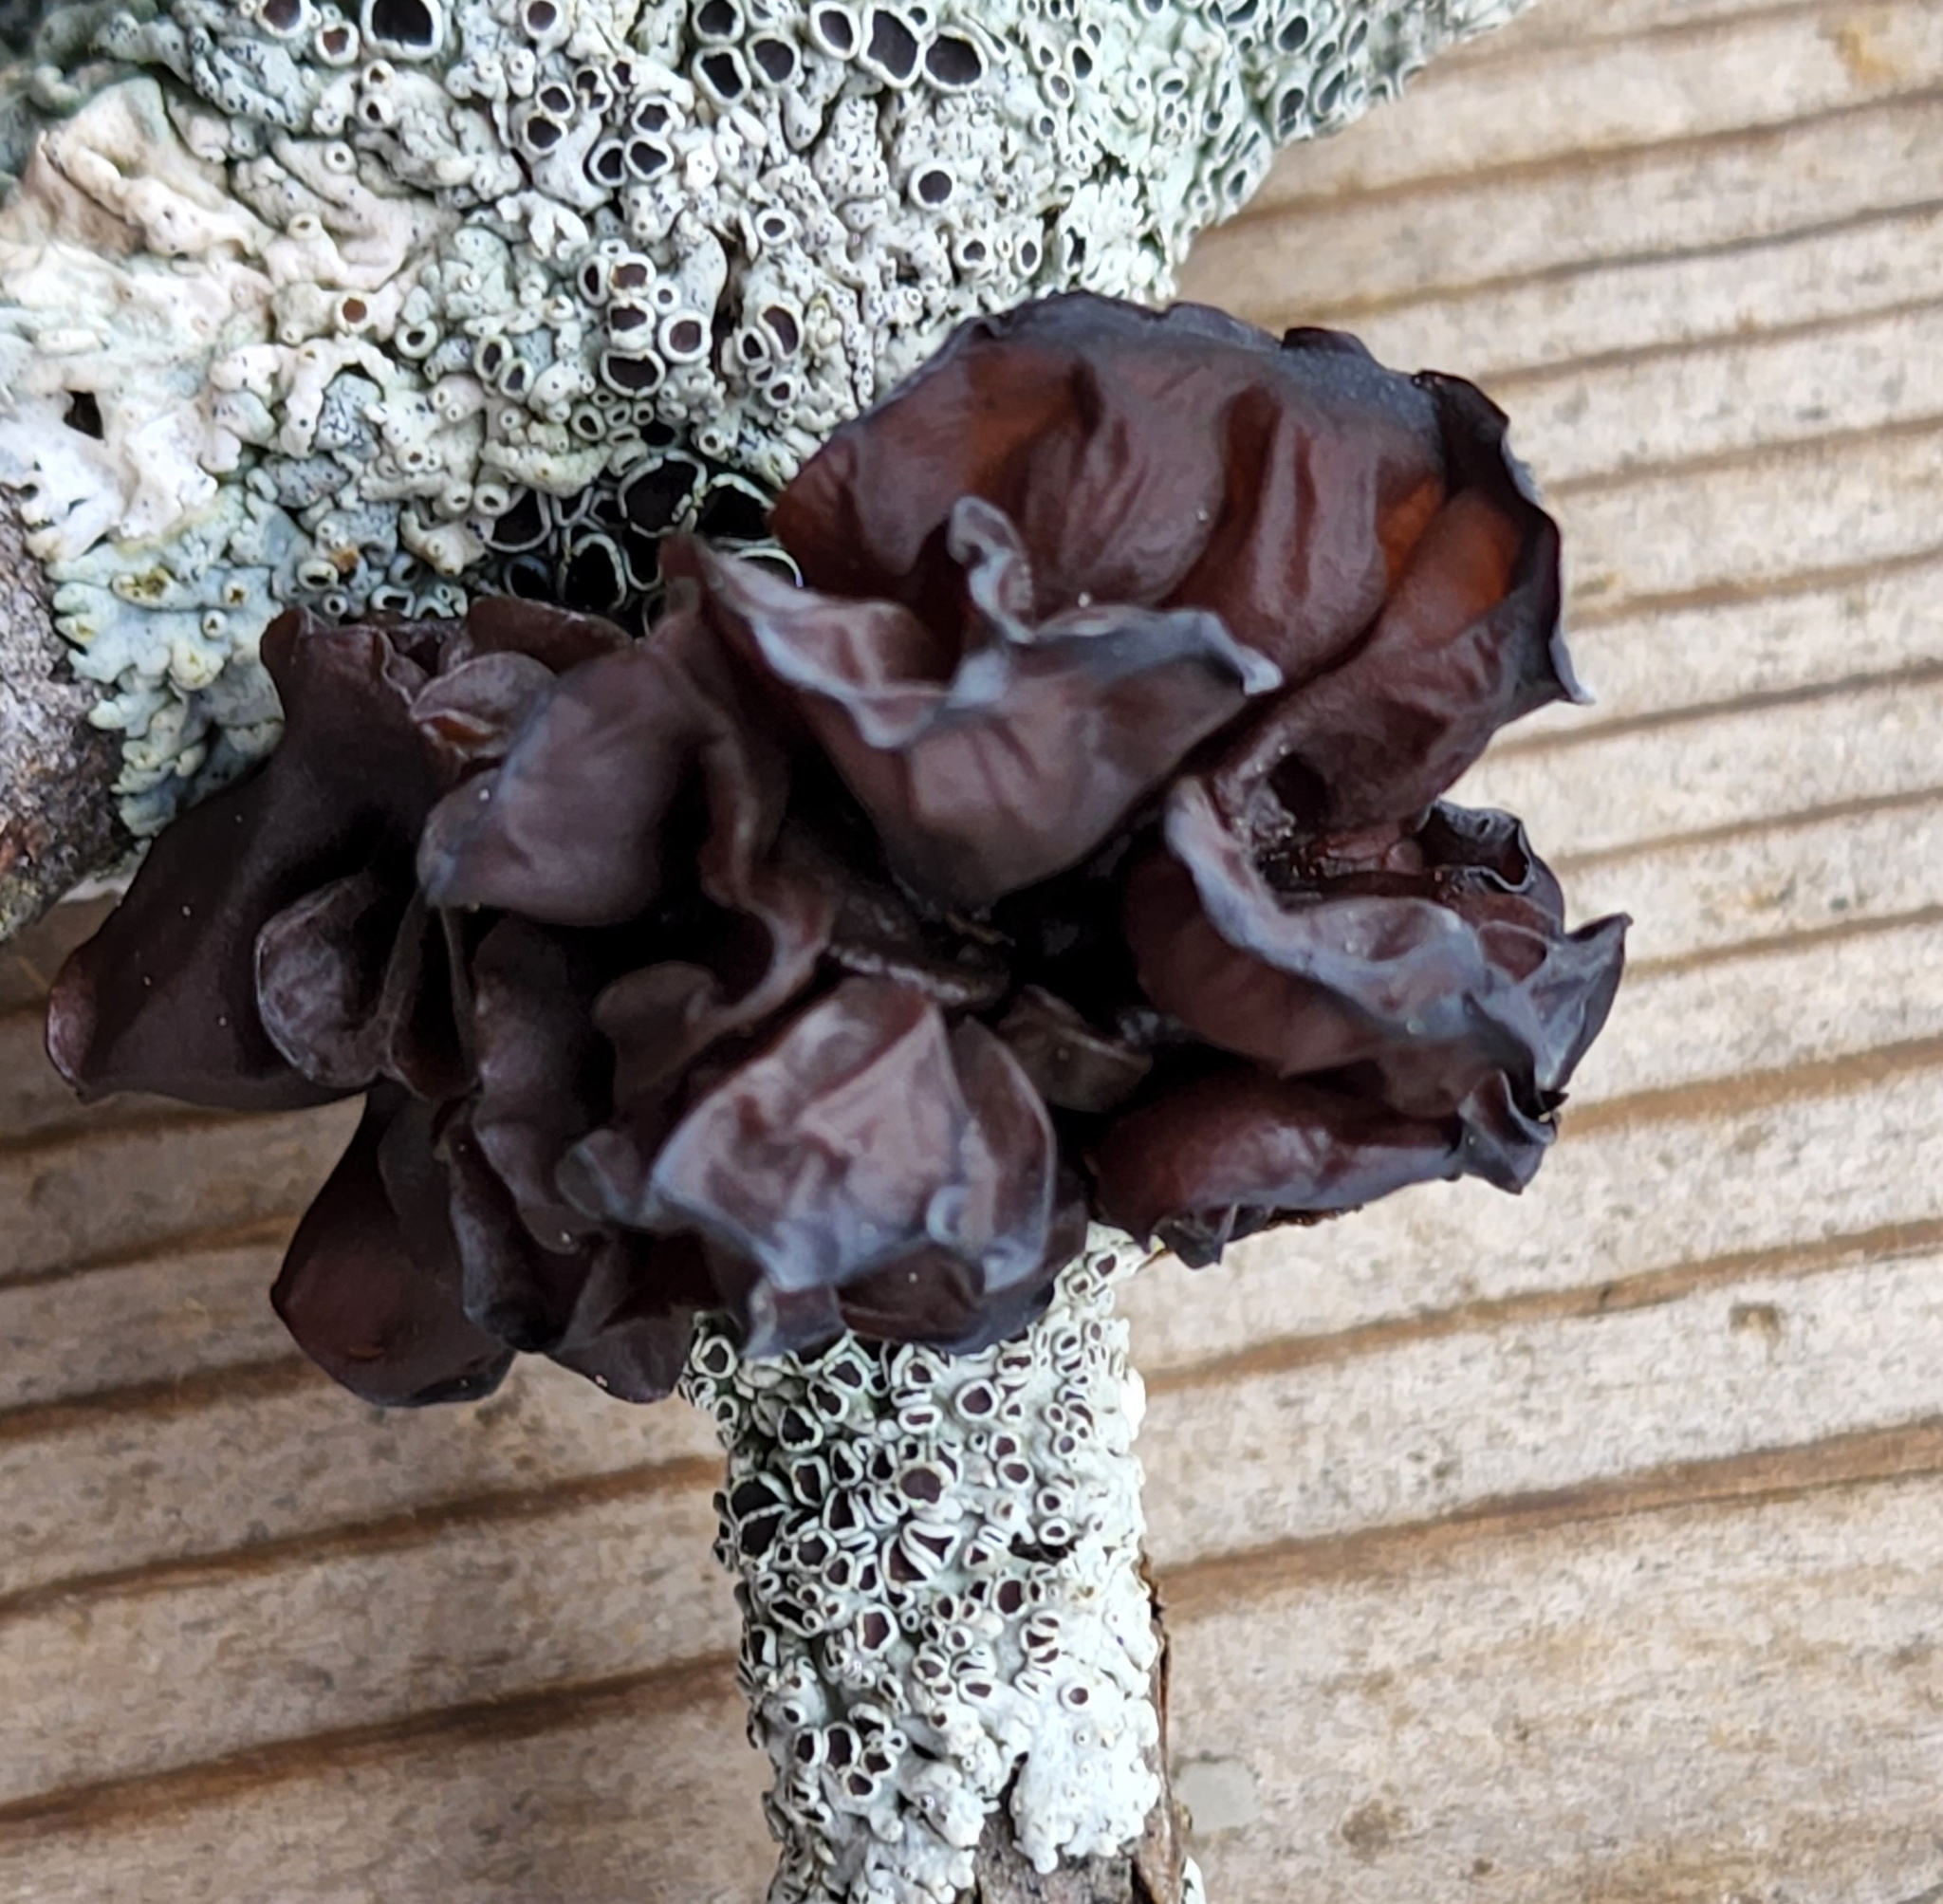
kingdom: Fungi
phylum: Basidiomycota
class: Agaricomycetes
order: Auriculariales
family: Auriculariaceae
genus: Exidia
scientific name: Exidia
